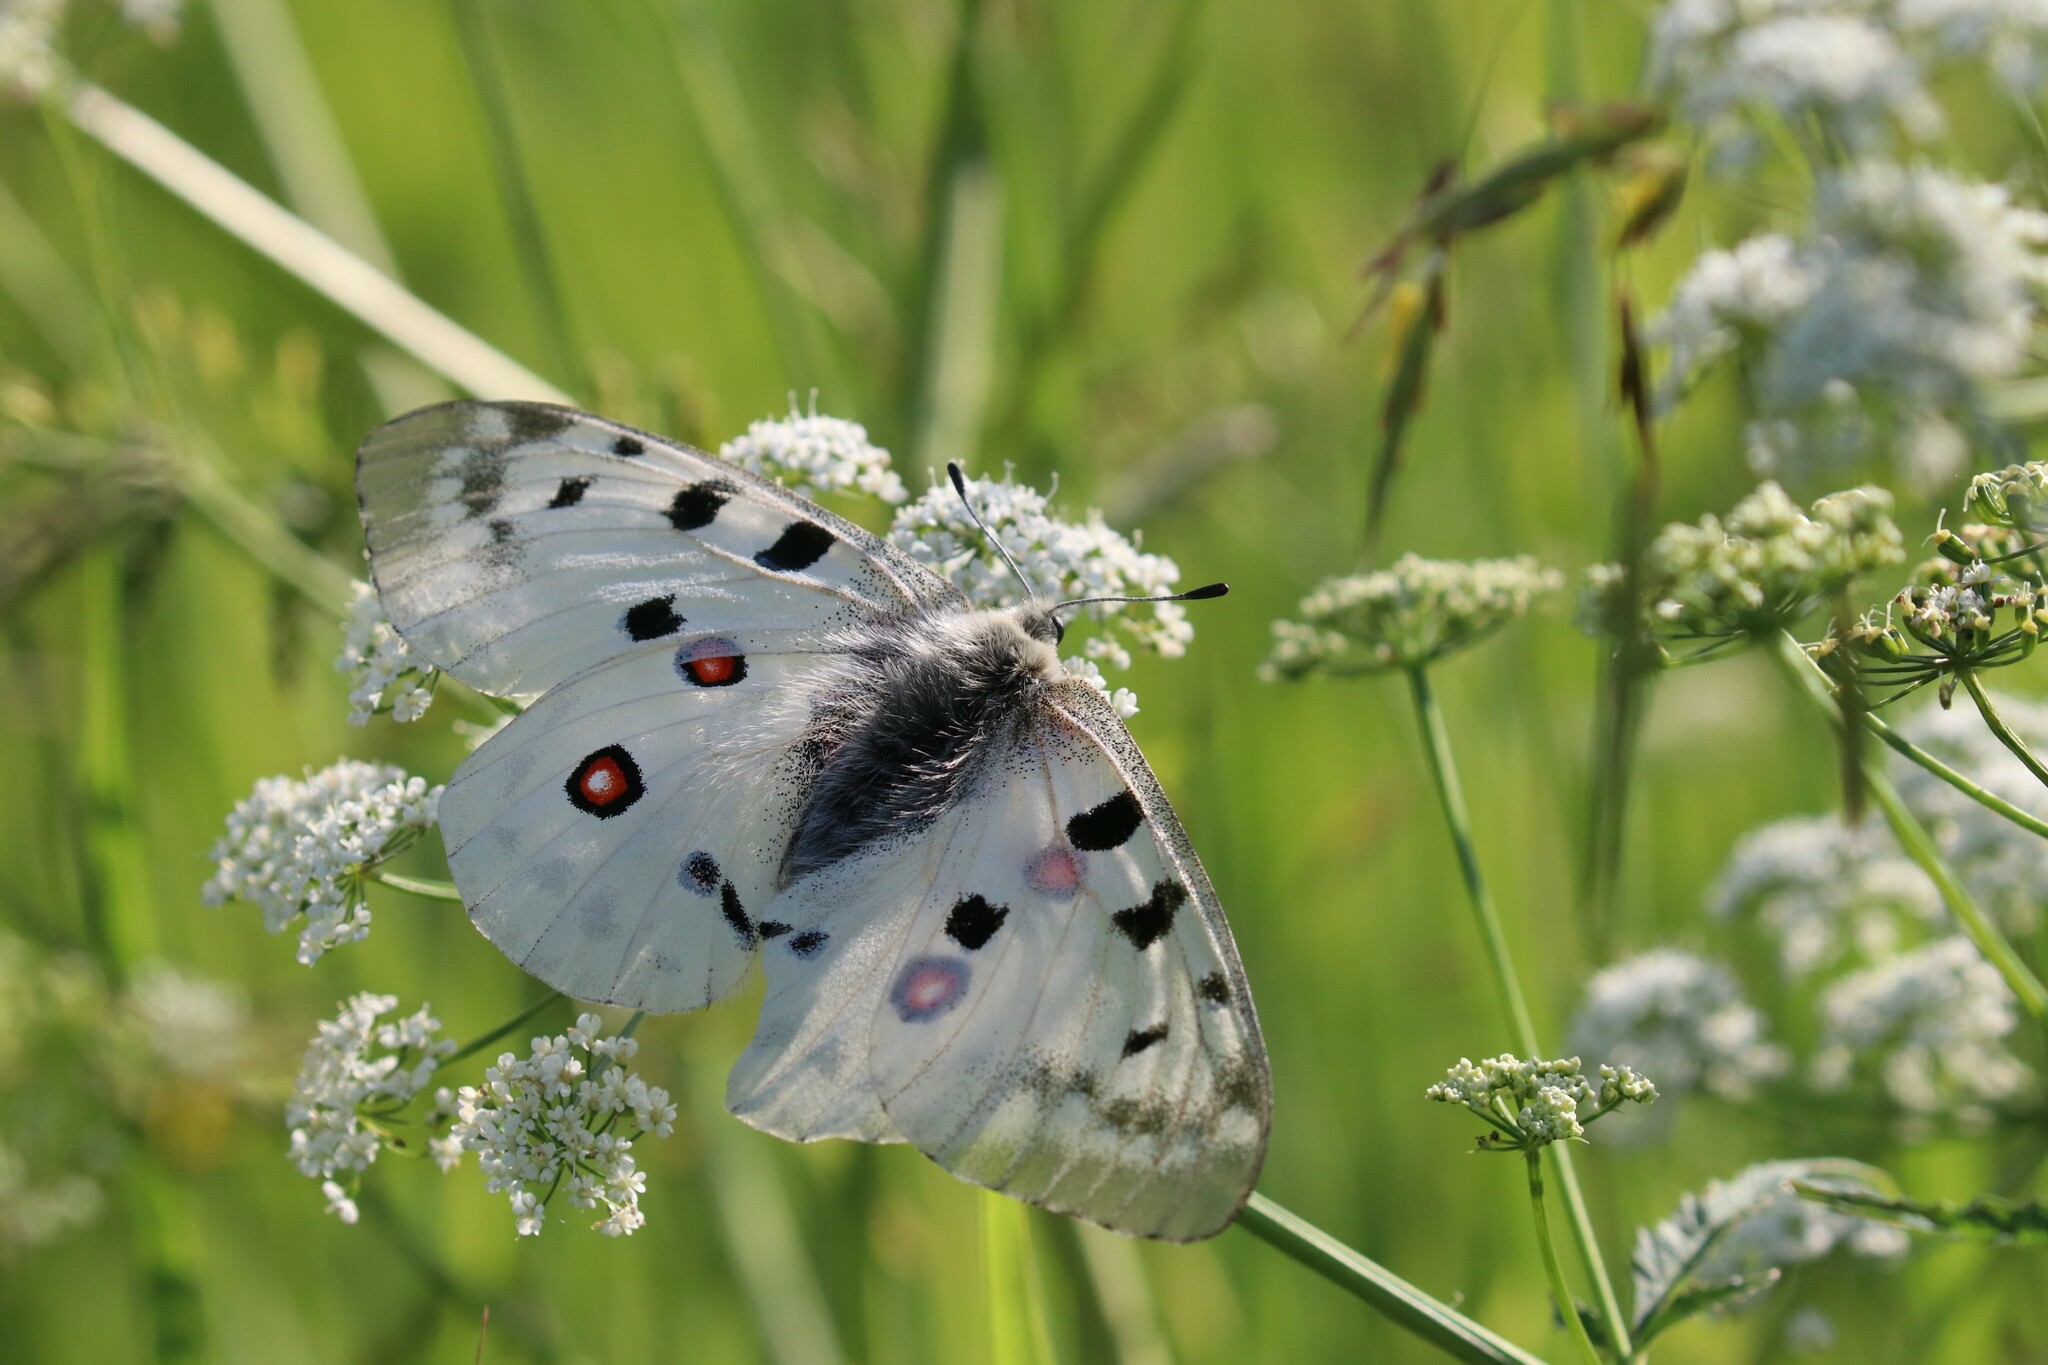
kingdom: Animalia
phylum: Arthropoda
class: Insecta
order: Lepidoptera
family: Papilionidae
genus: Parnassius
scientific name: Parnassius apollo
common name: Apollo
